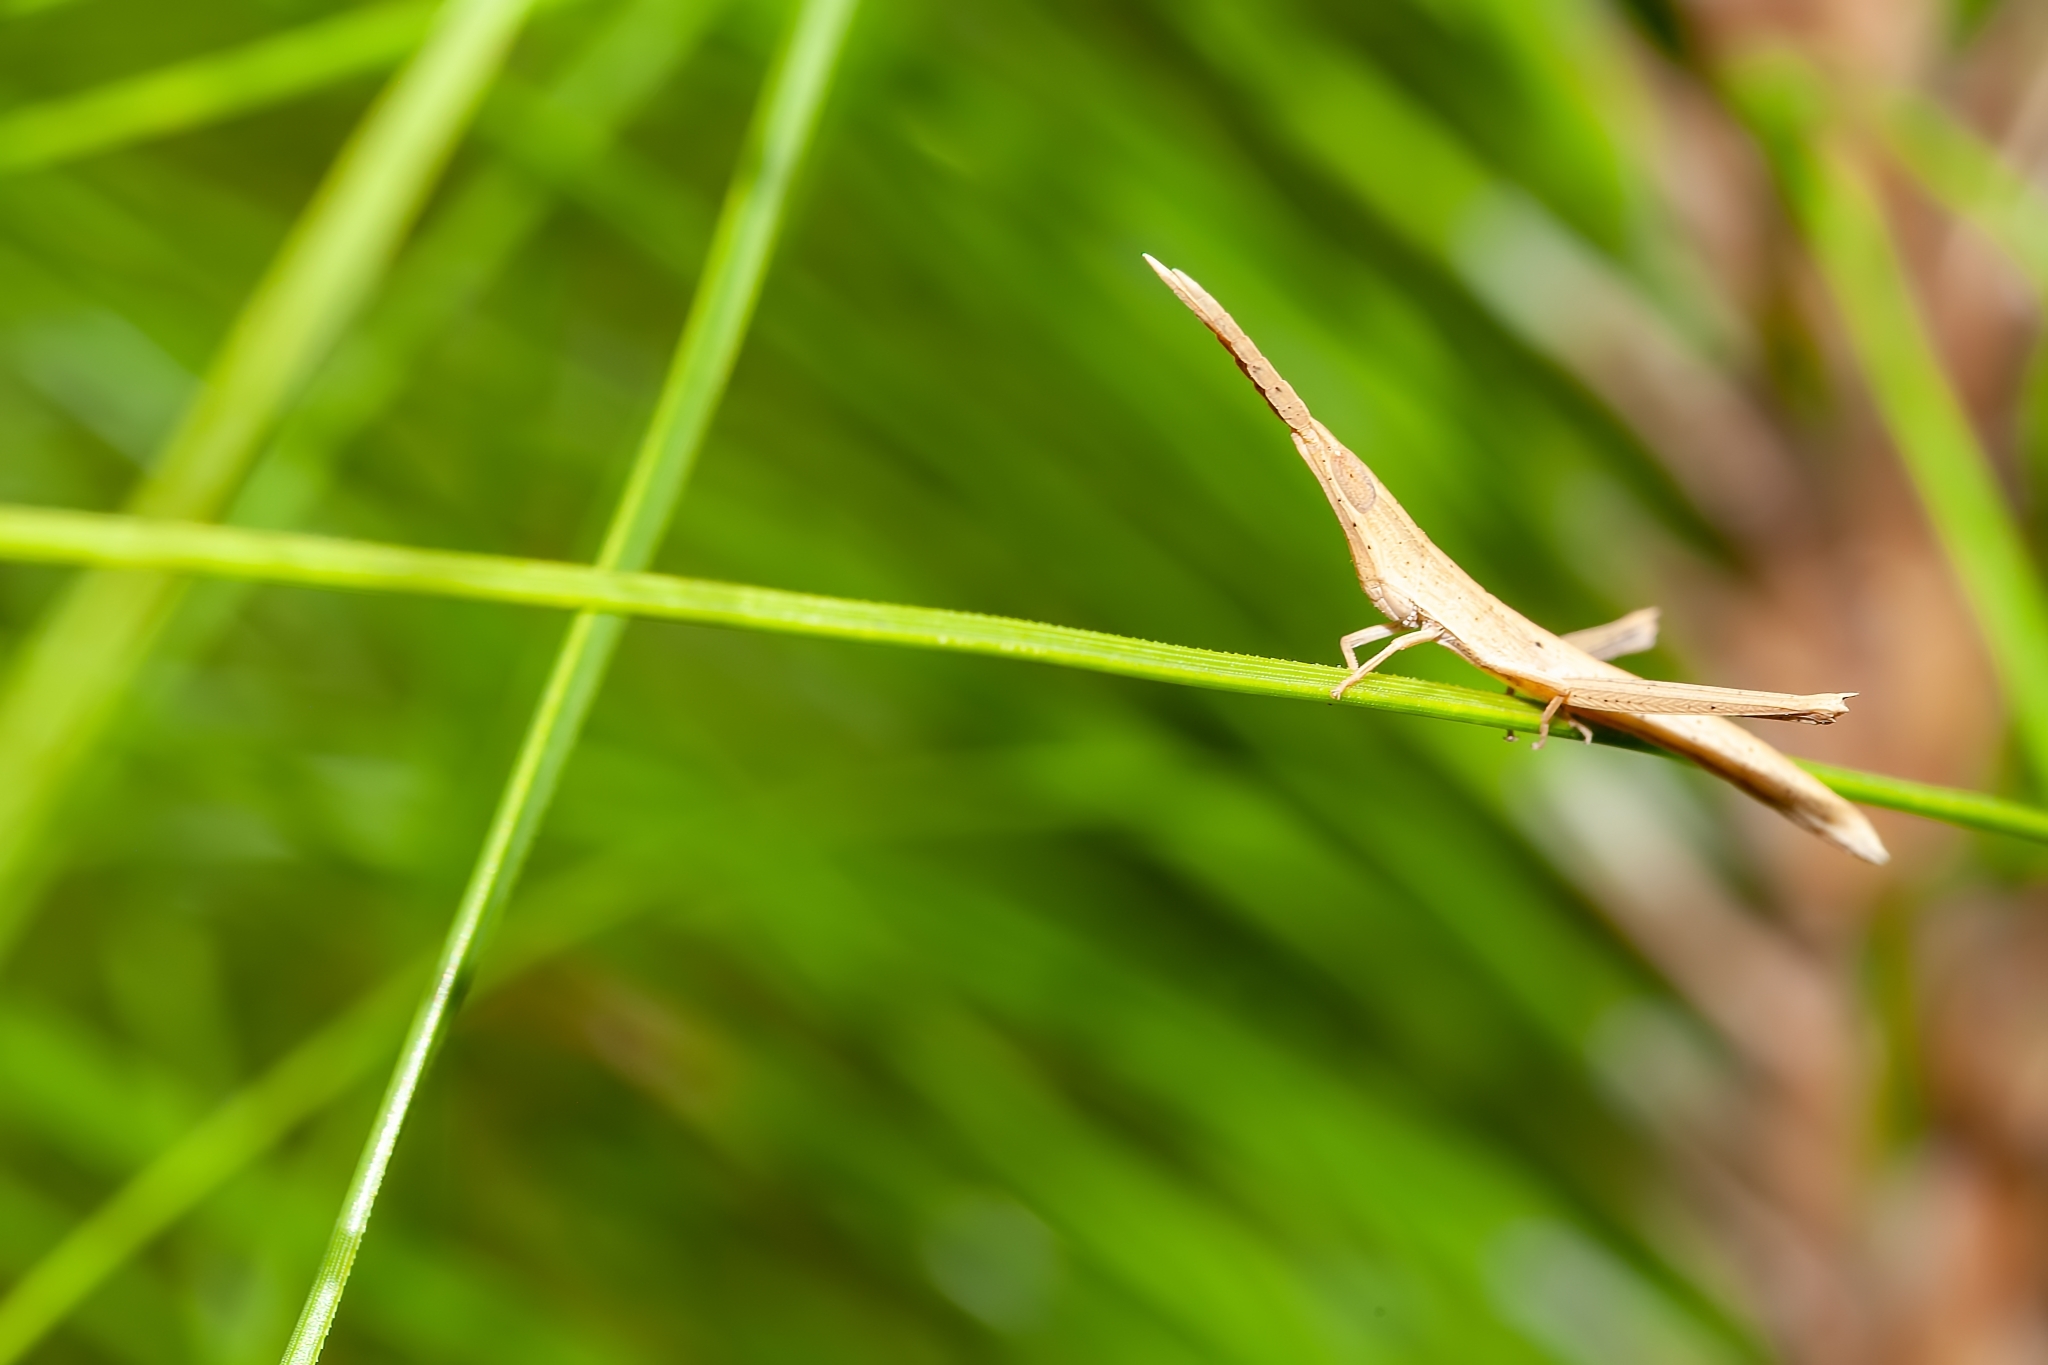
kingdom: Animalia
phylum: Arthropoda
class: Insecta
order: Orthoptera
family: Acrididae
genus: Achurum
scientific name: Achurum carinatum
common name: Long-headed toothpick grasshopper
